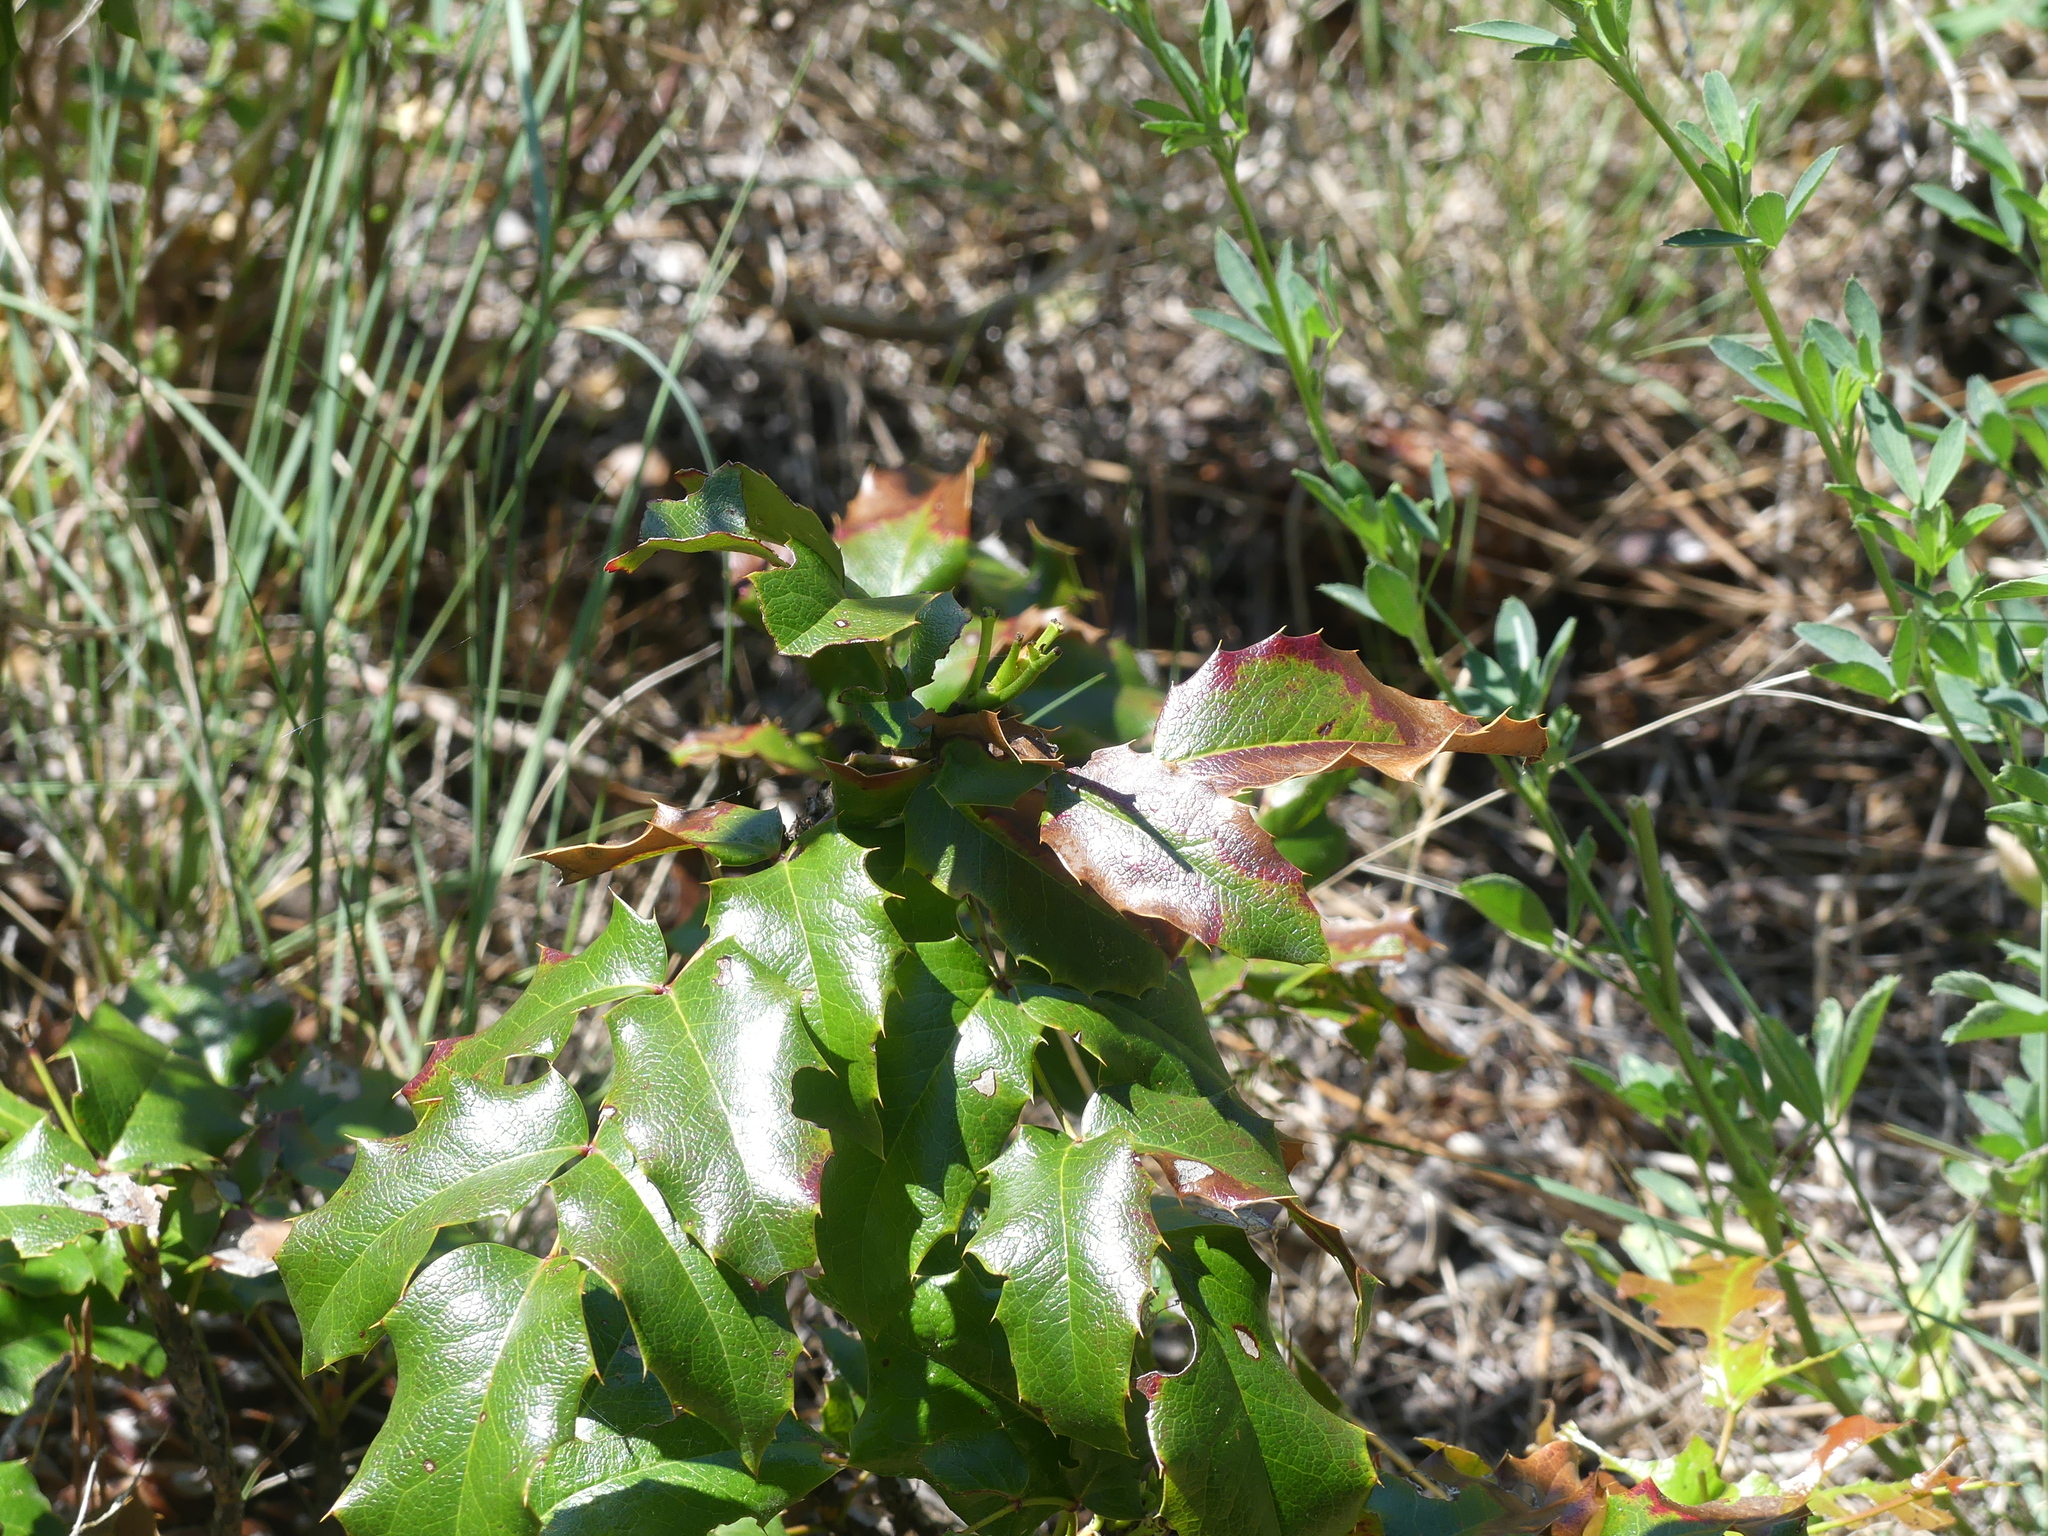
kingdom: Plantae
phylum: Tracheophyta
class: Magnoliopsida
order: Ranunculales
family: Berberidaceae
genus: Mahonia
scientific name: Mahonia aquifolium
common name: Oregon-grape
